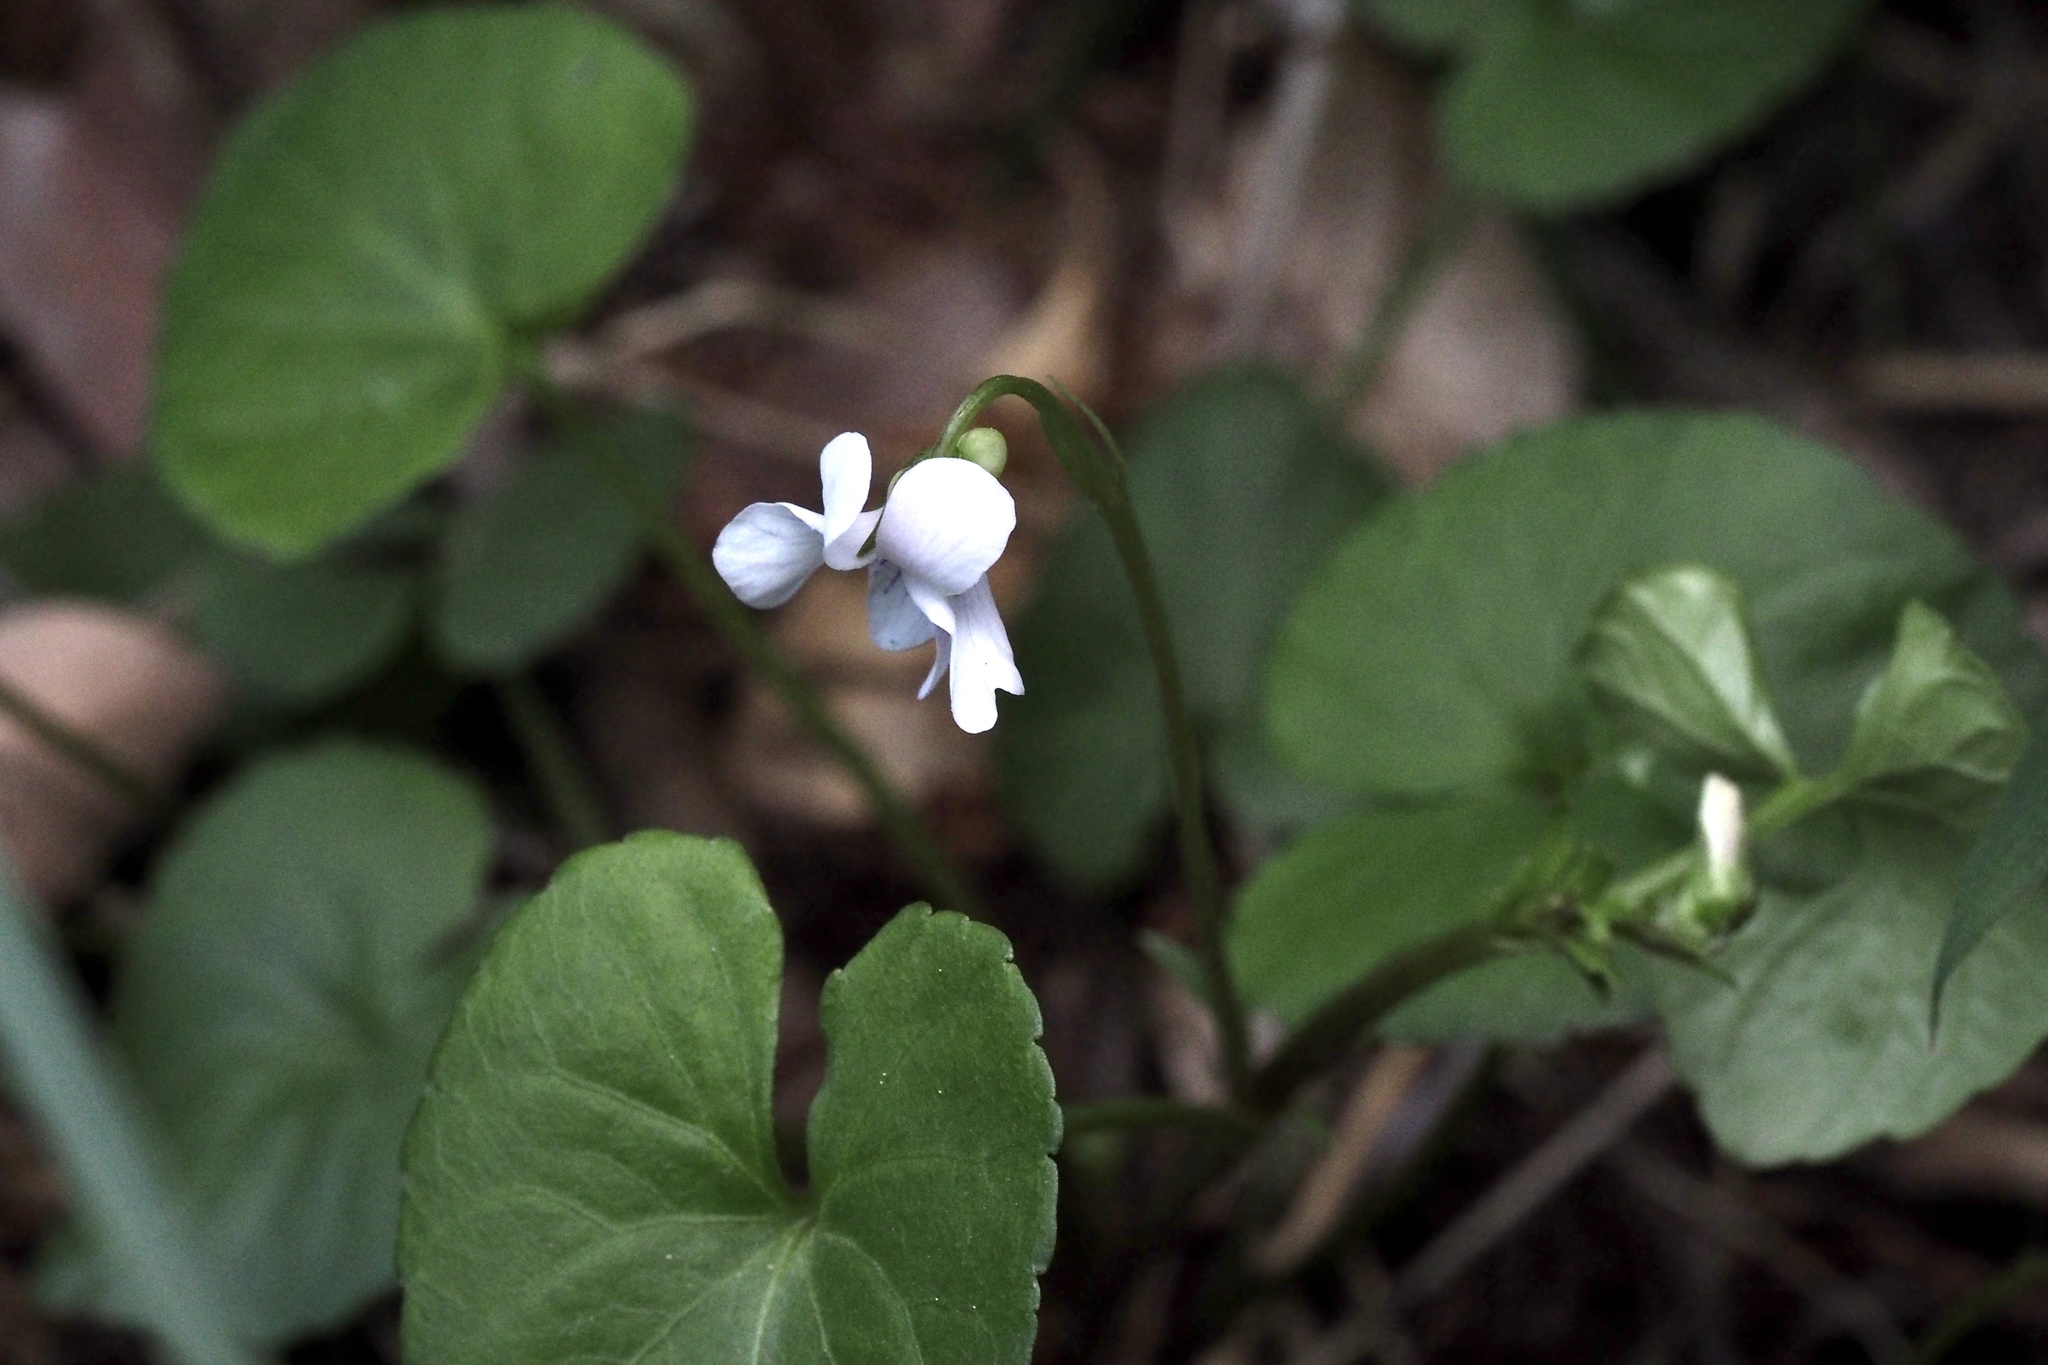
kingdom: Plantae
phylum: Tracheophyta
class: Magnoliopsida
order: Malpighiales
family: Violaceae
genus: Viola
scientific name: Viola
